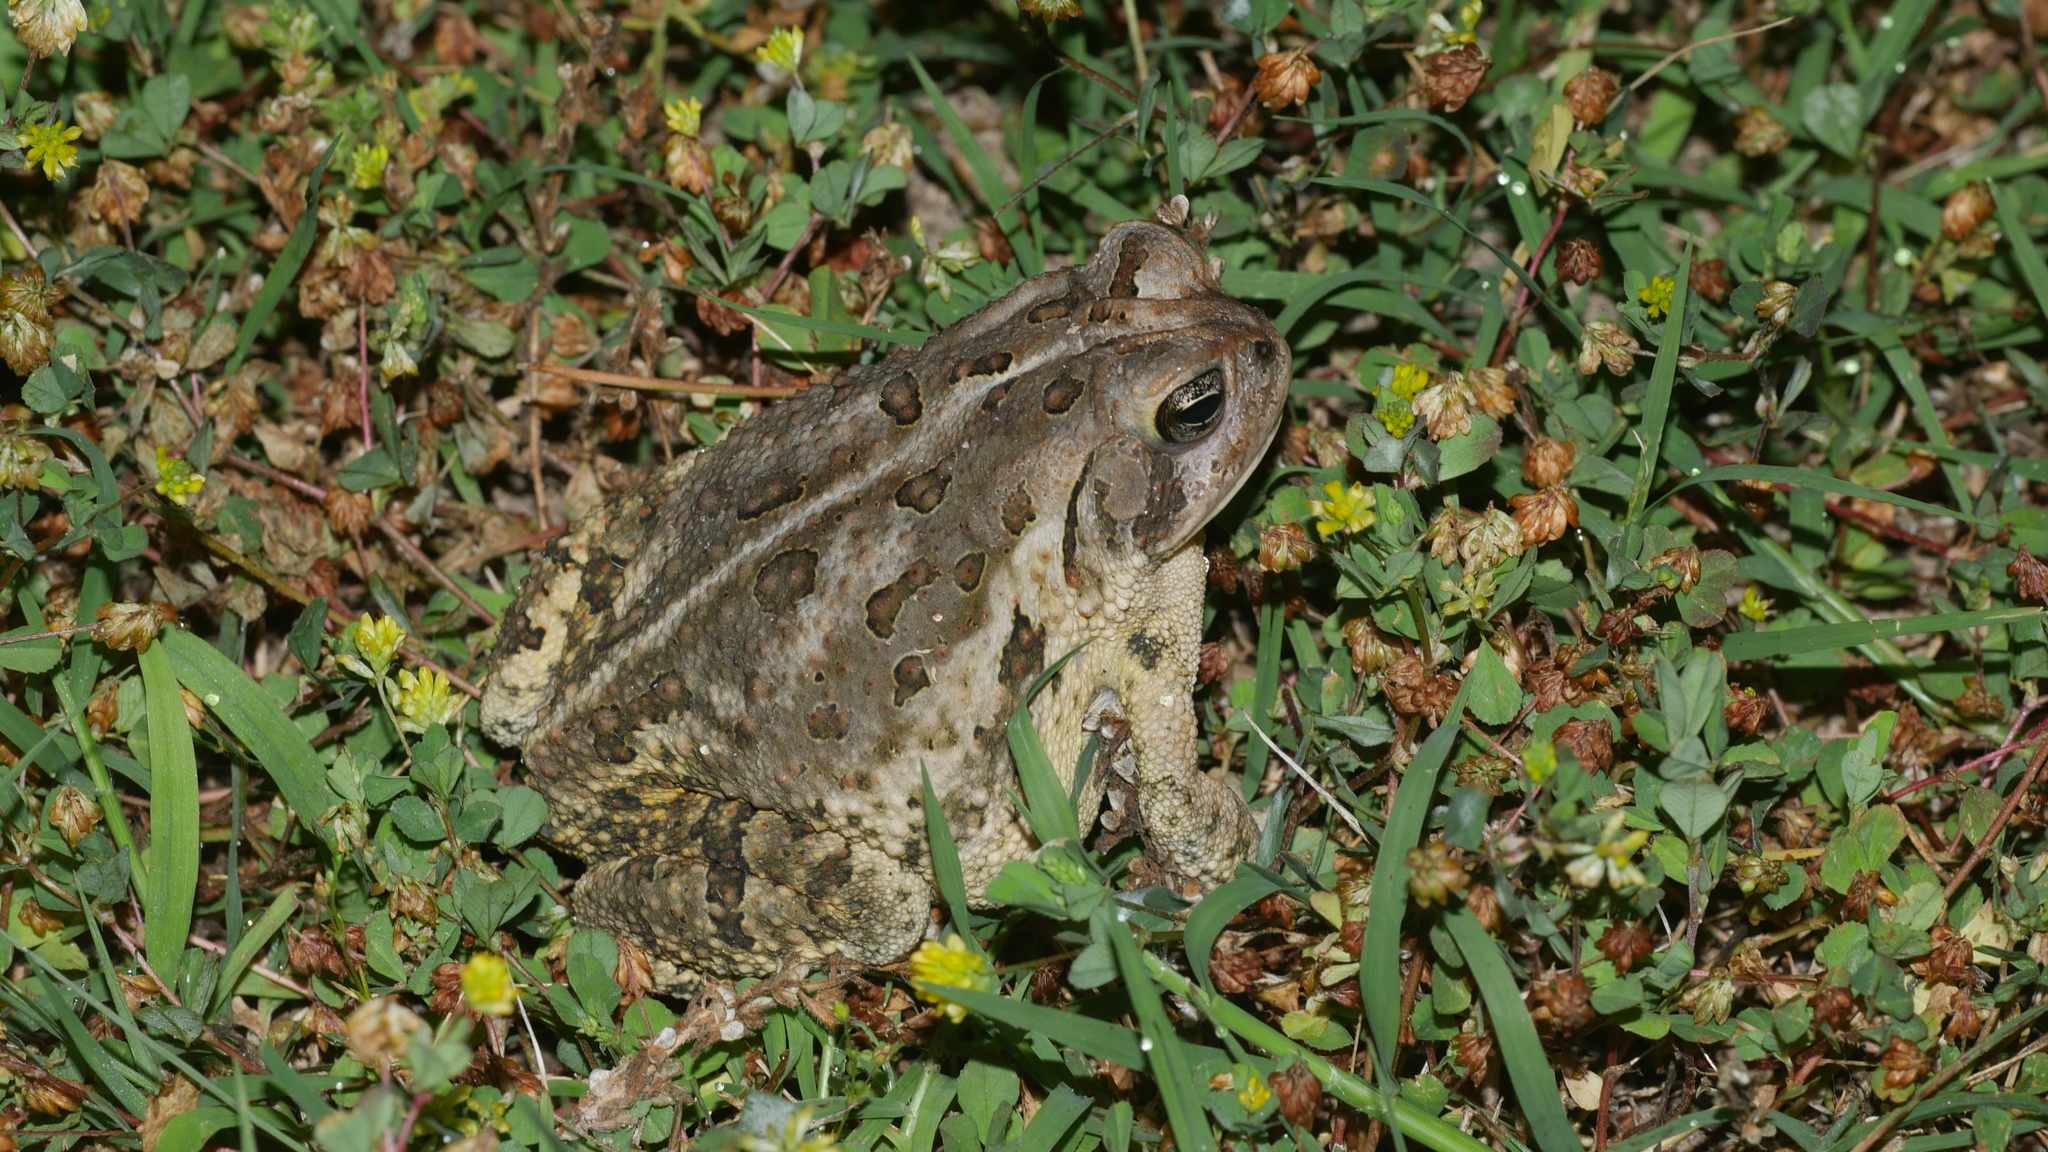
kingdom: Animalia
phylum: Chordata
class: Amphibia
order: Anura
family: Bufonidae
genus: Anaxyrus
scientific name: Anaxyrus fowleri
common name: Fowler's toad
